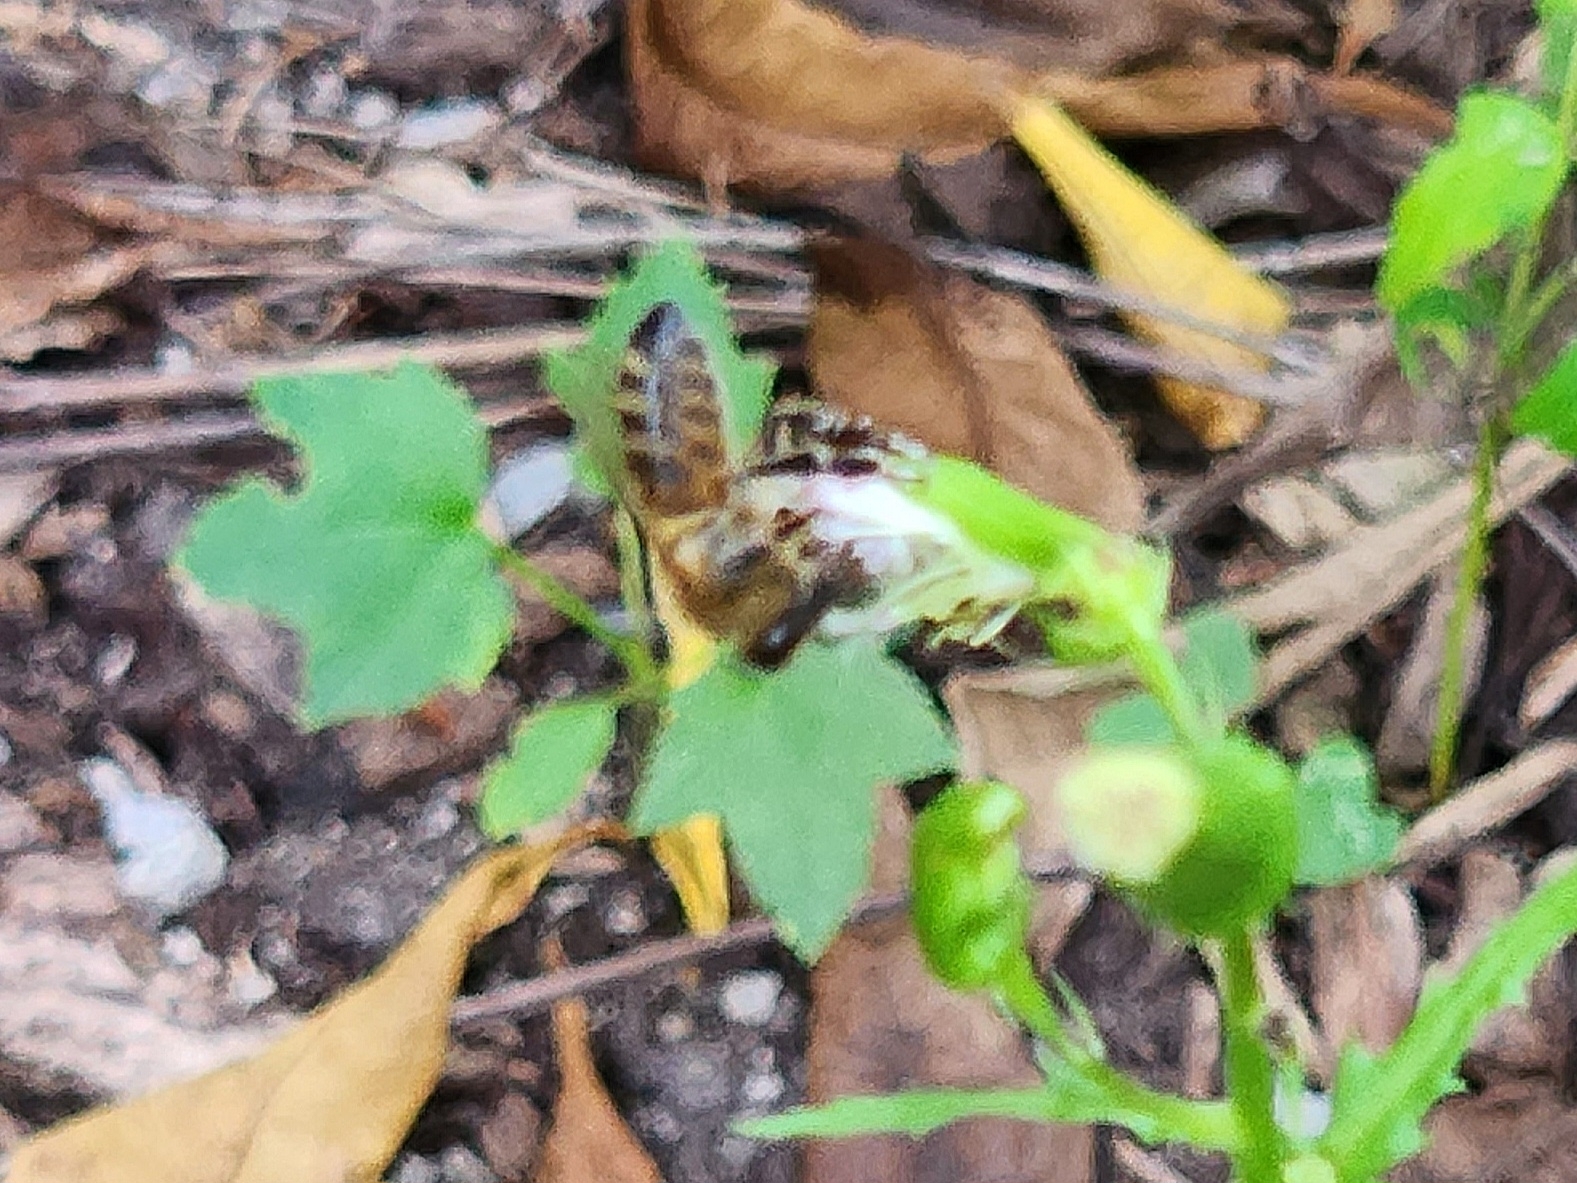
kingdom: Animalia
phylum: Arthropoda
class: Insecta
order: Hymenoptera
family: Apidae
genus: Apis
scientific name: Apis mellifera
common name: Honey bee
